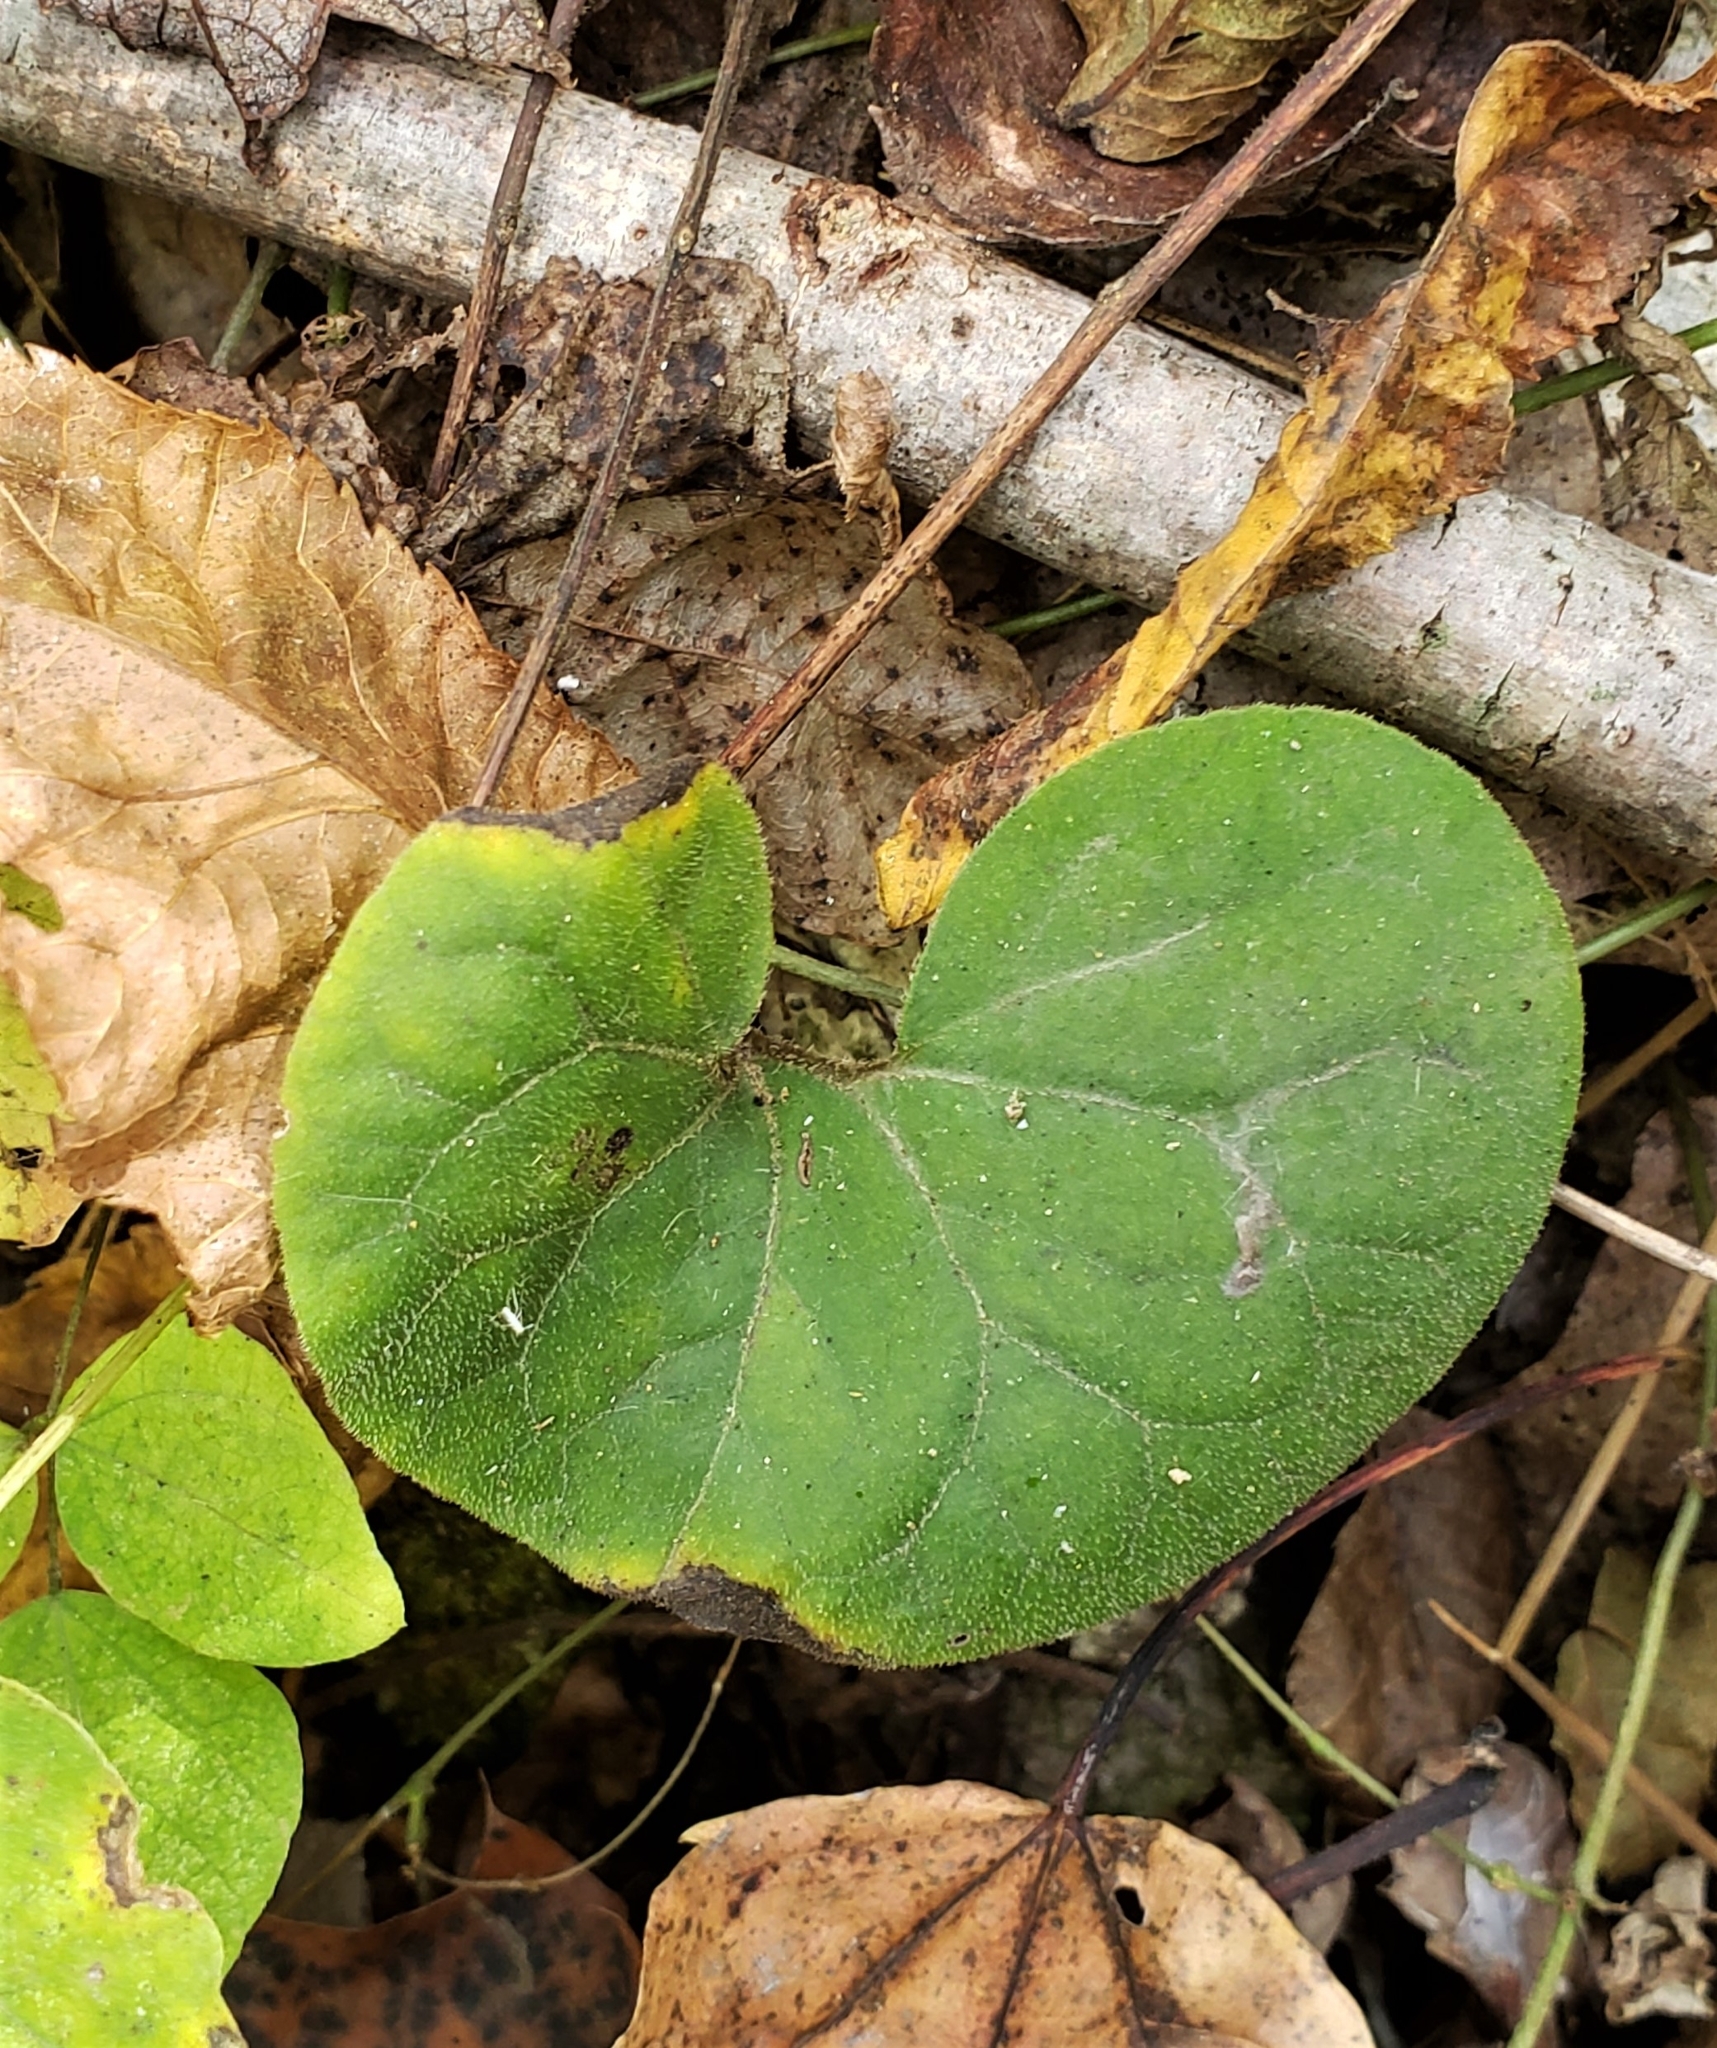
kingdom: Plantae
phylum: Tracheophyta
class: Magnoliopsida
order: Piperales
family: Aristolochiaceae
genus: Asarum
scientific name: Asarum canadense
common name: Wild ginger
